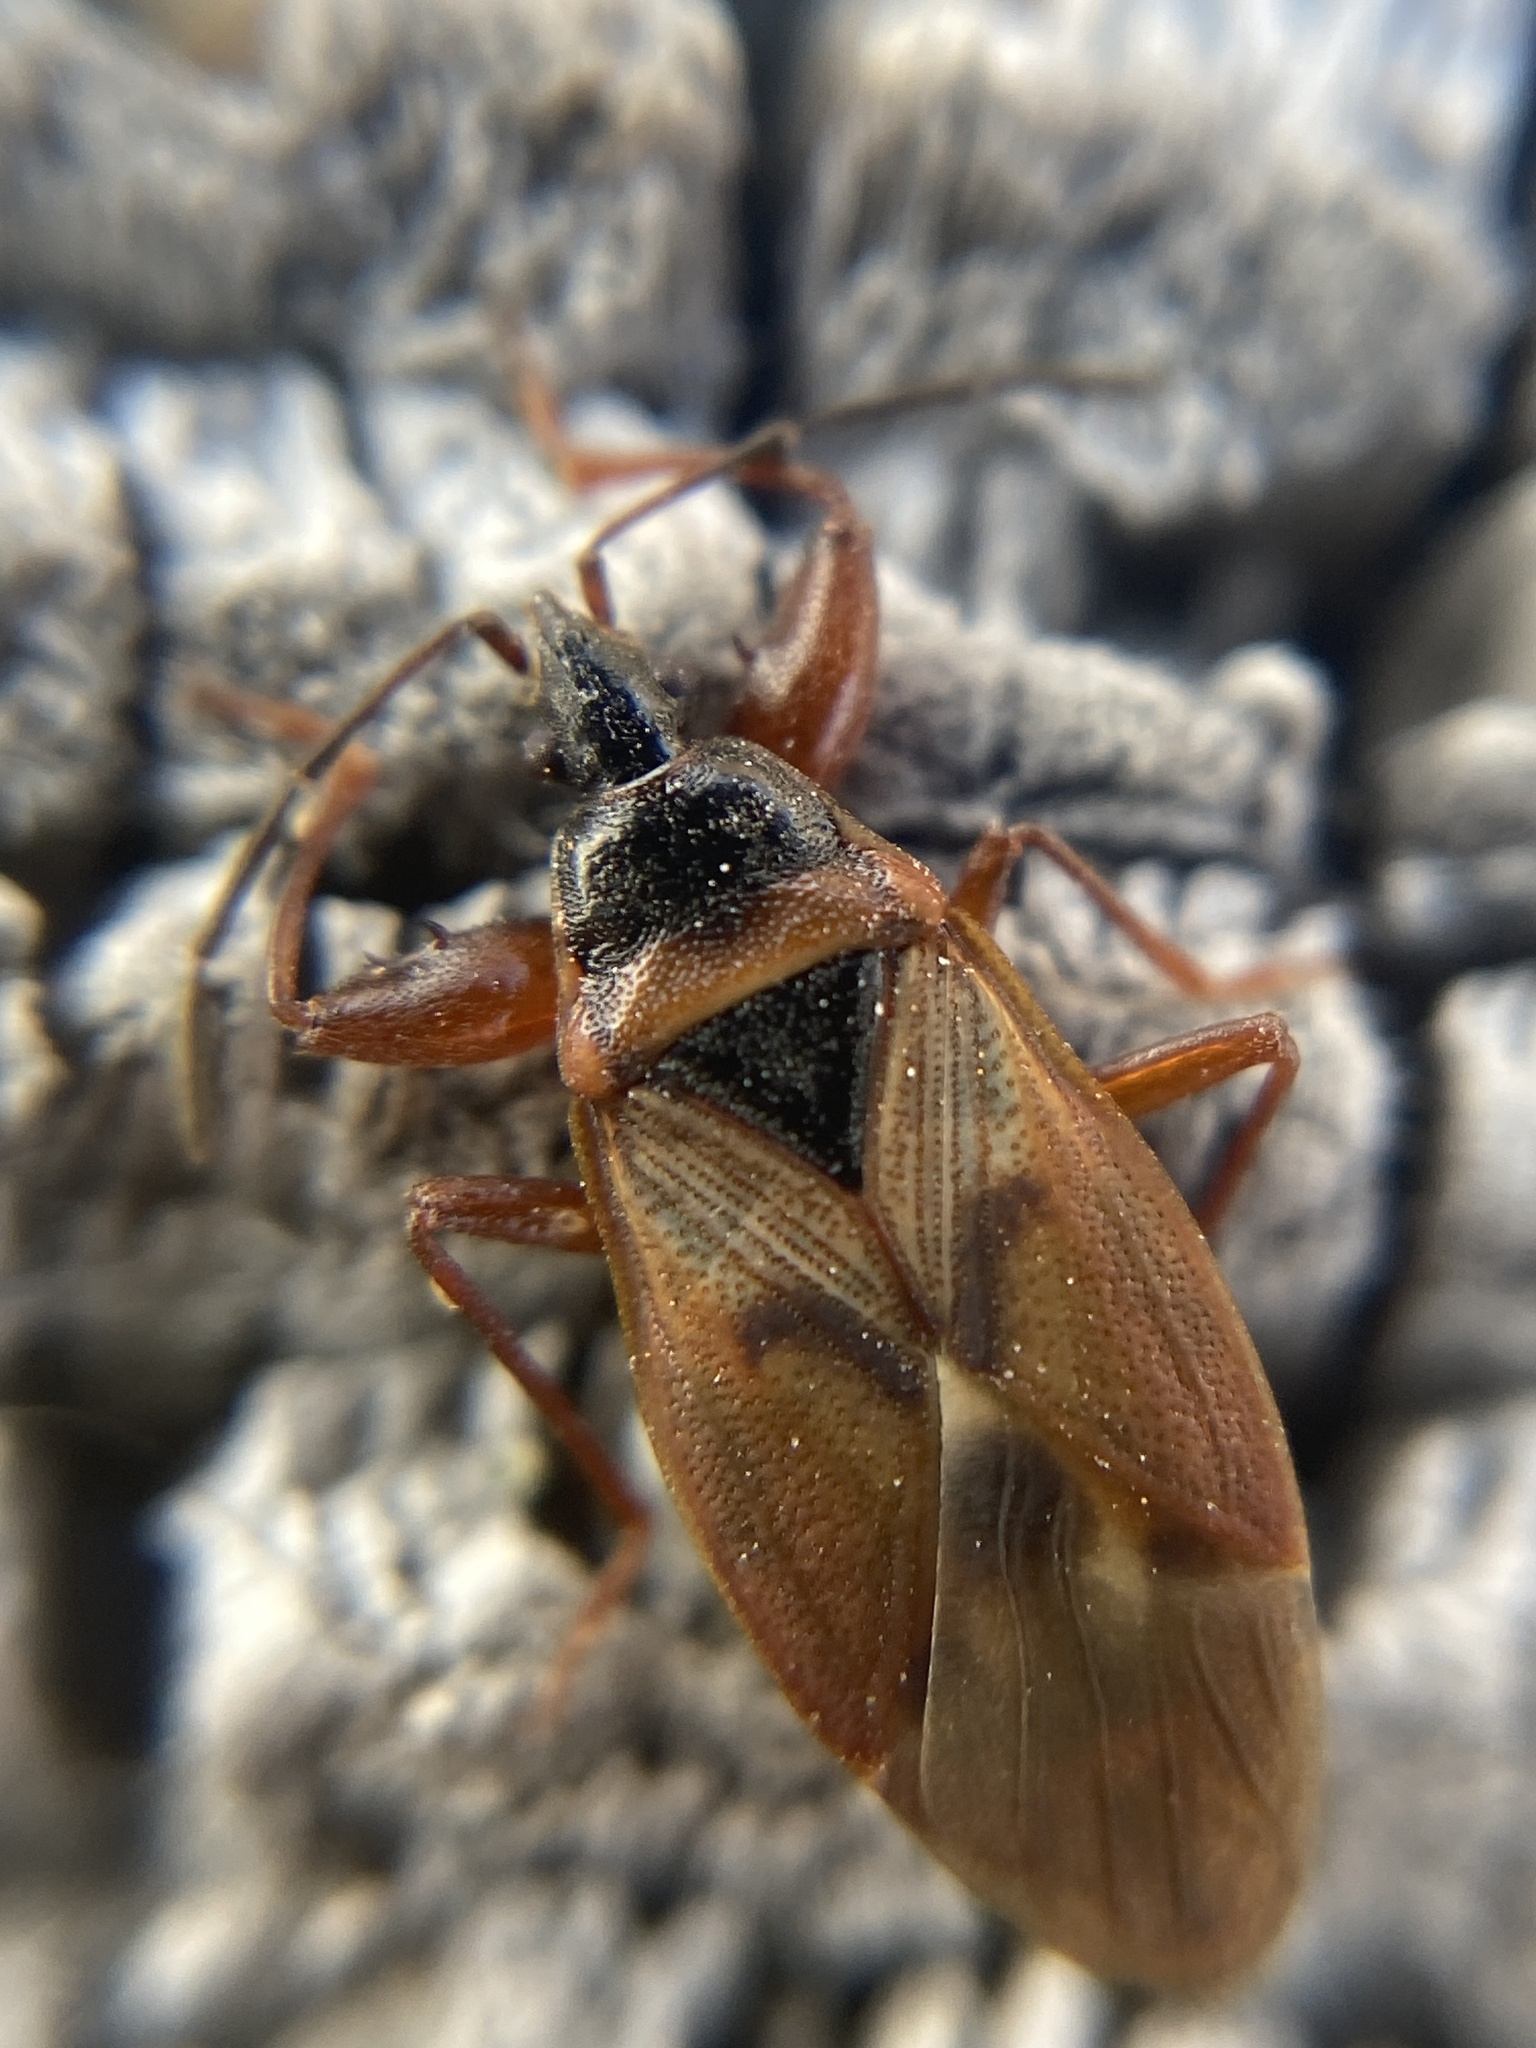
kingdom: Animalia
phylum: Arthropoda
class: Insecta
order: Hemiptera
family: Rhyparochromidae
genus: Gastrodes
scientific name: Gastrodes abietum
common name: Spruce cone bug
